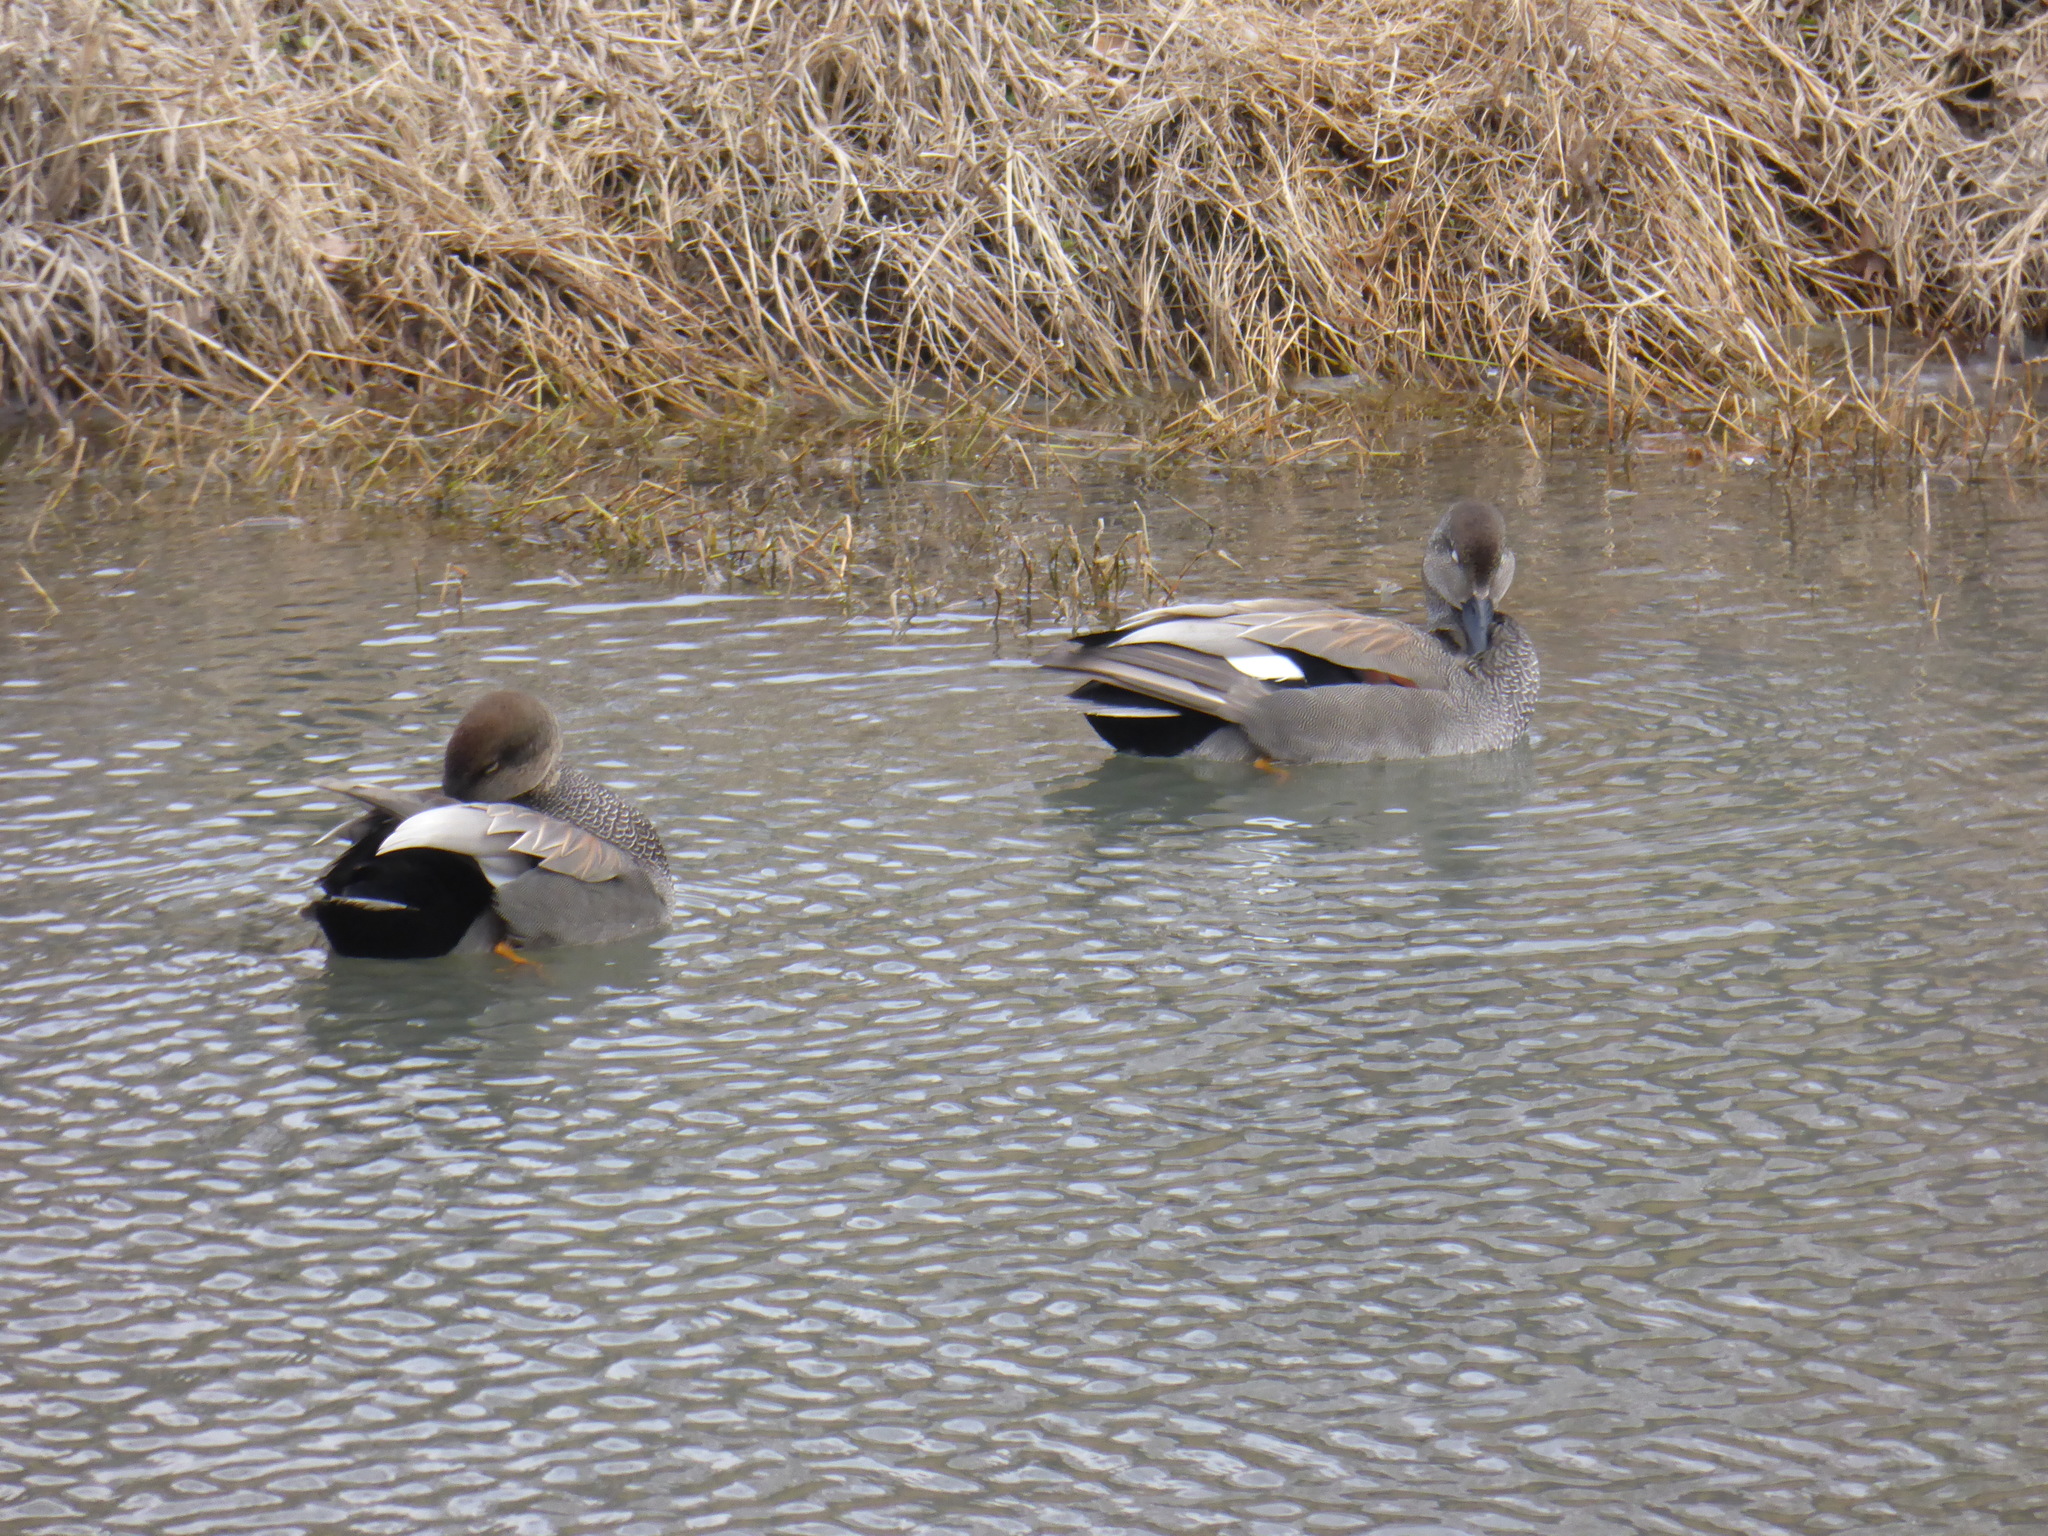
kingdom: Animalia
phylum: Chordata
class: Aves
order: Anseriformes
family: Anatidae
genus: Mareca
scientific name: Mareca strepera
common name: Gadwall
